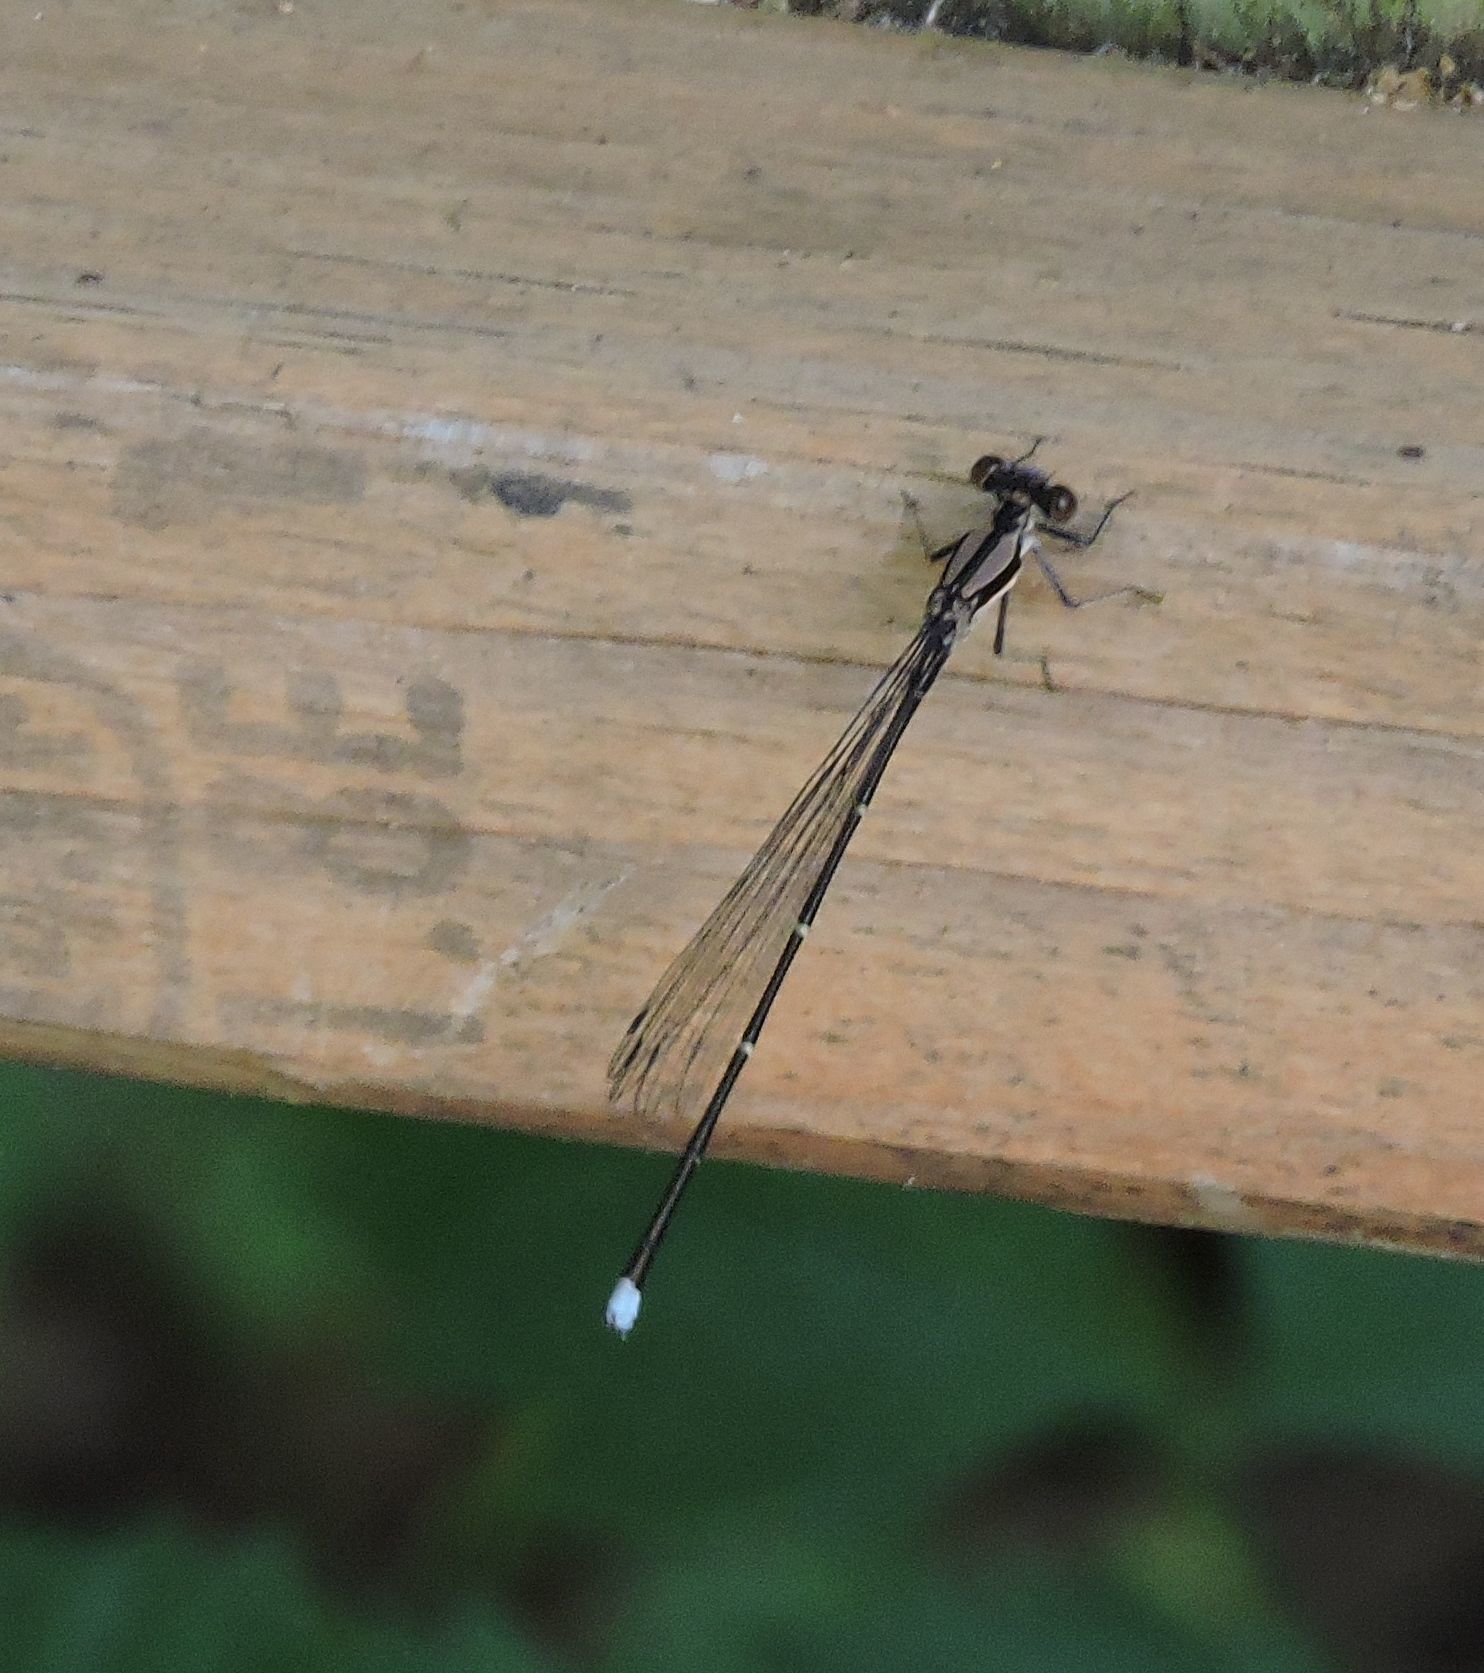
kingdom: Animalia
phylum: Arthropoda
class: Insecta
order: Odonata
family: Coenagrionidae
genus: Argia
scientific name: Argia tibialis
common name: Blue-tipped dancer
